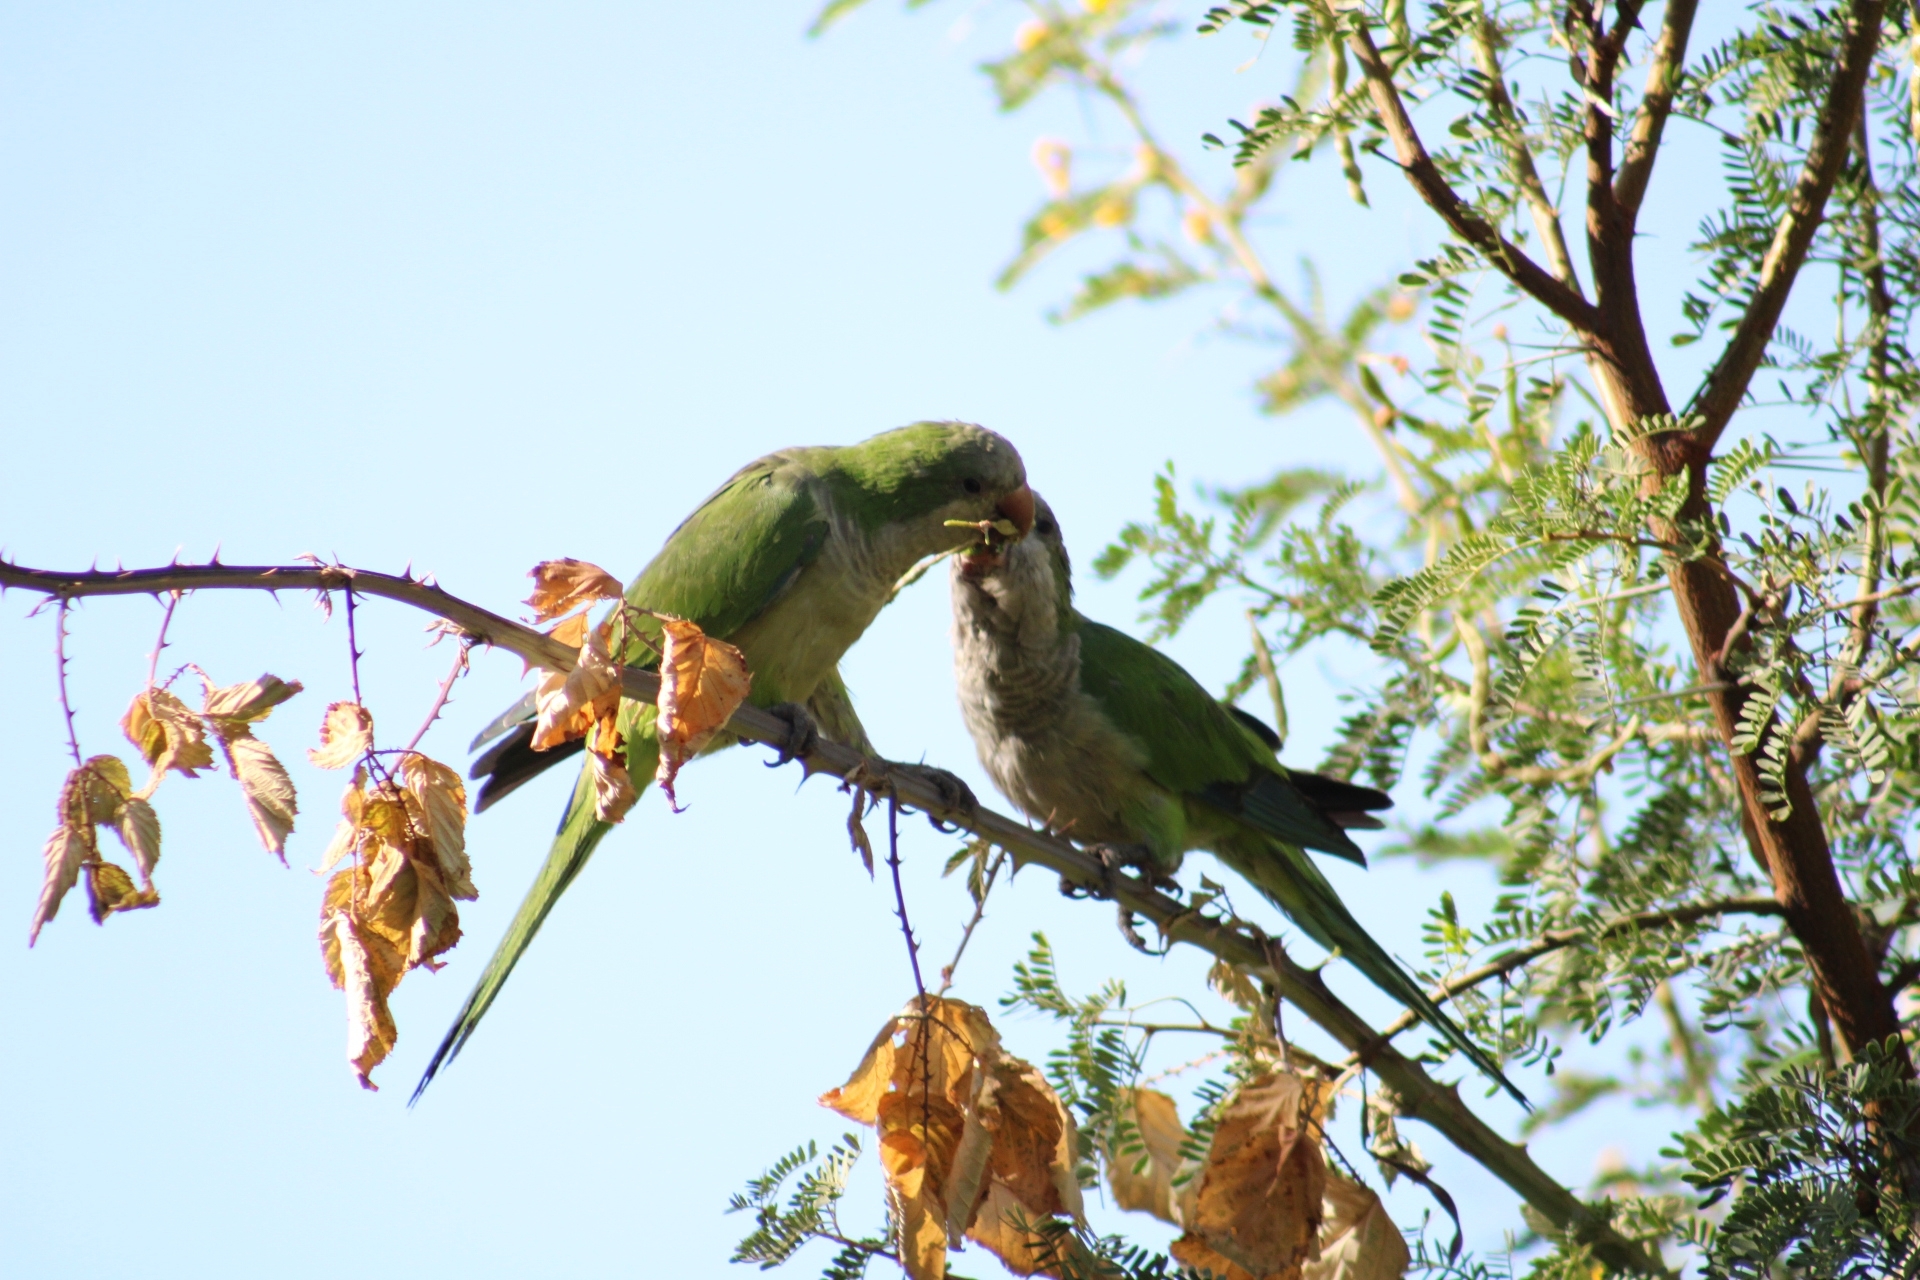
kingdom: Animalia
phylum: Chordata
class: Aves
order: Psittaciformes
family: Psittacidae
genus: Myiopsitta
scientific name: Myiopsitta monachus
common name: Monk parakeet
